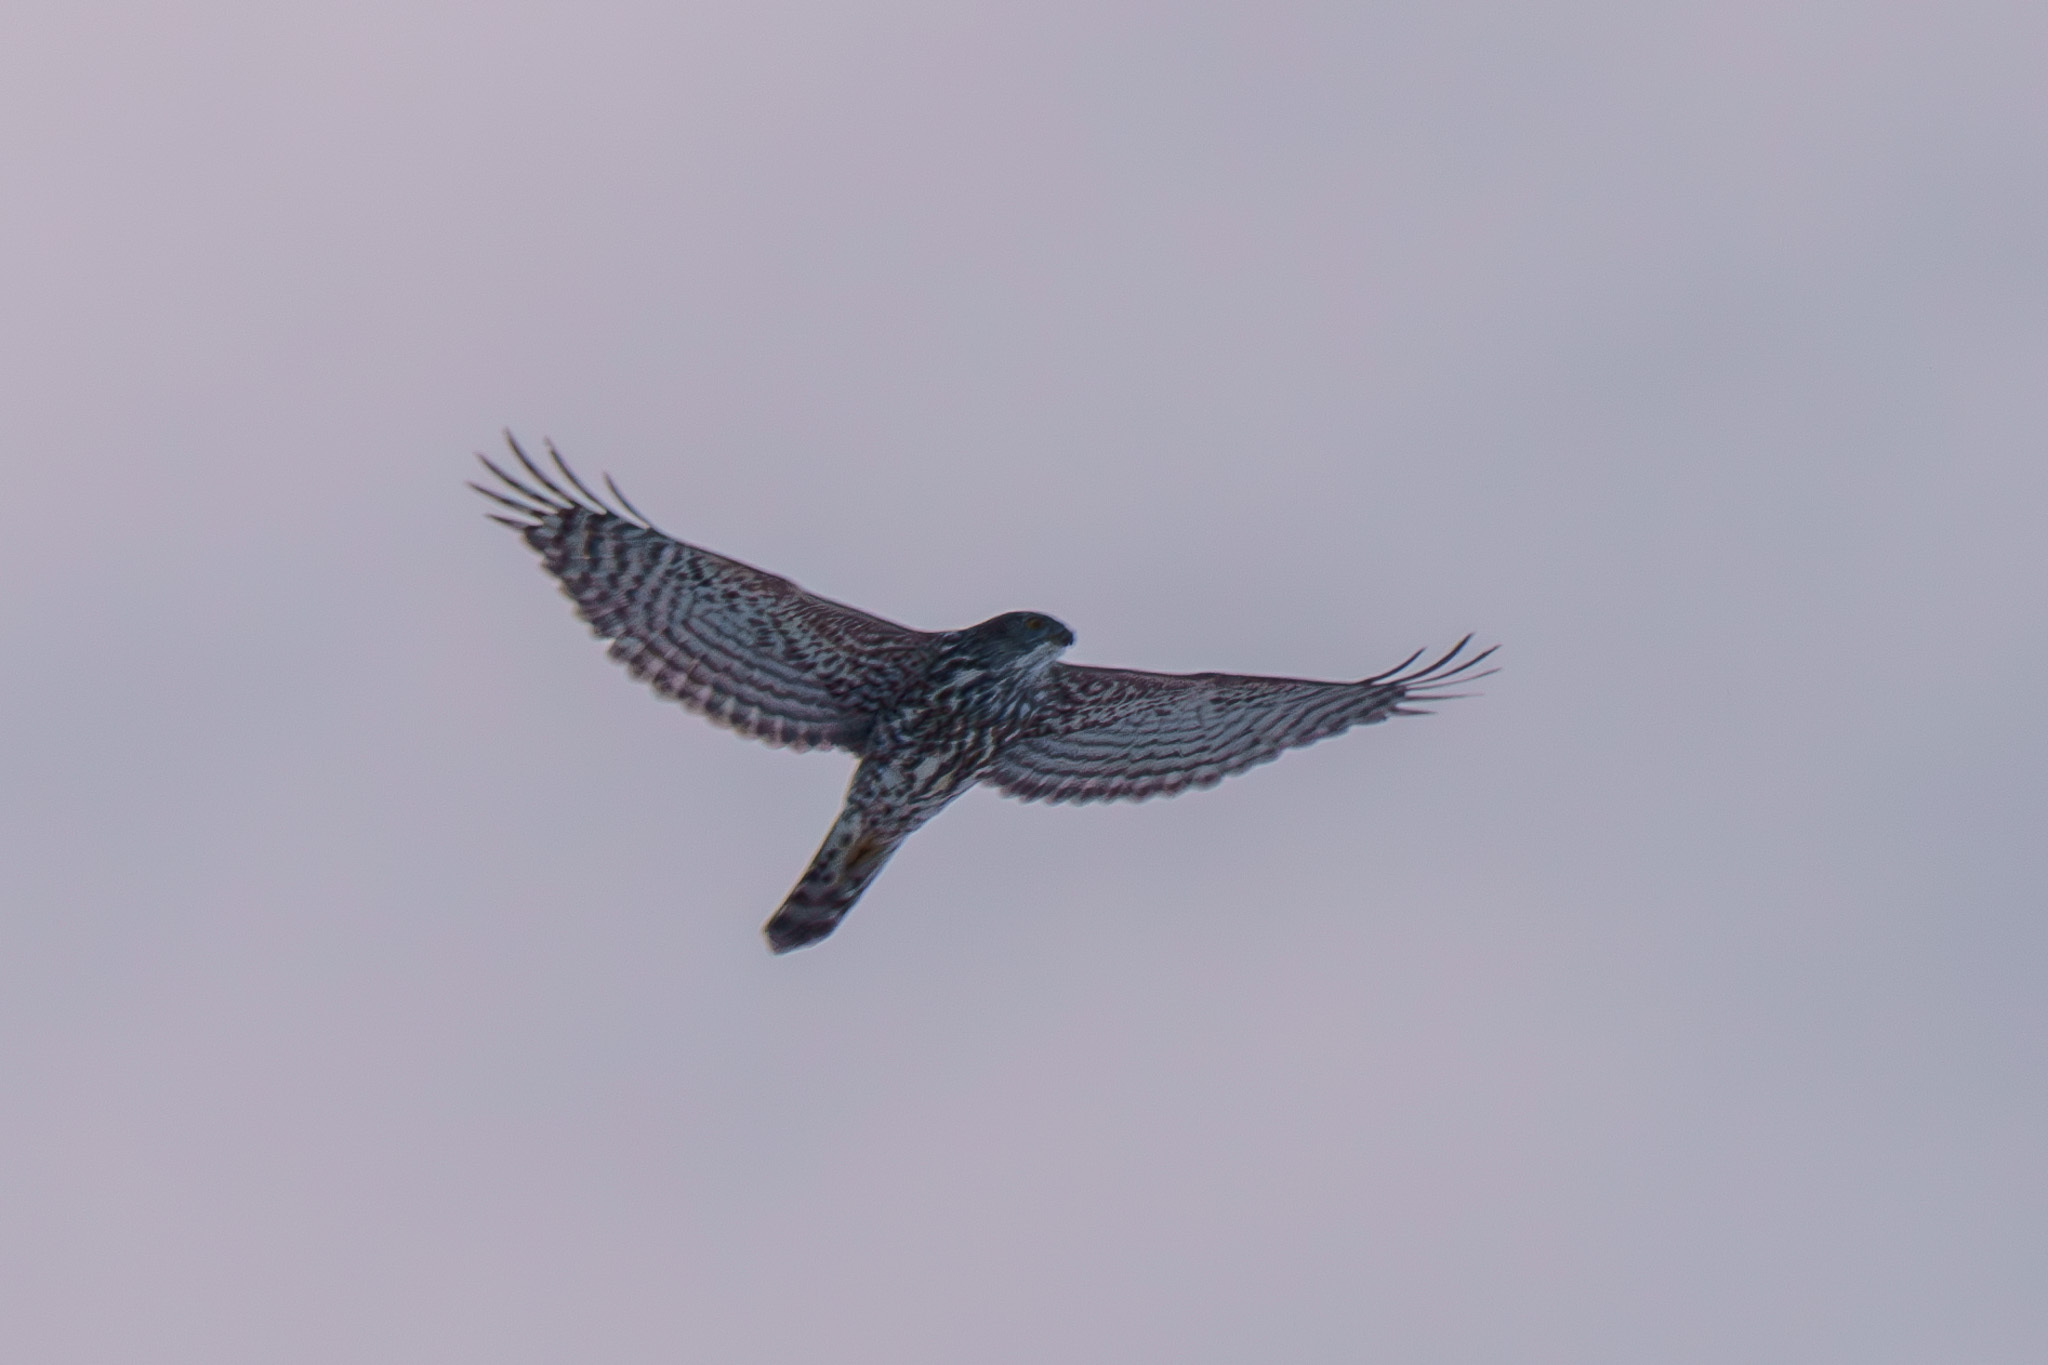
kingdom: Animalia
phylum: Chordata
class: Aves
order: Accipitriformes
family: Accipitridae
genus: Accipiter
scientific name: Accipiter gentilis
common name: Northern goshawk
